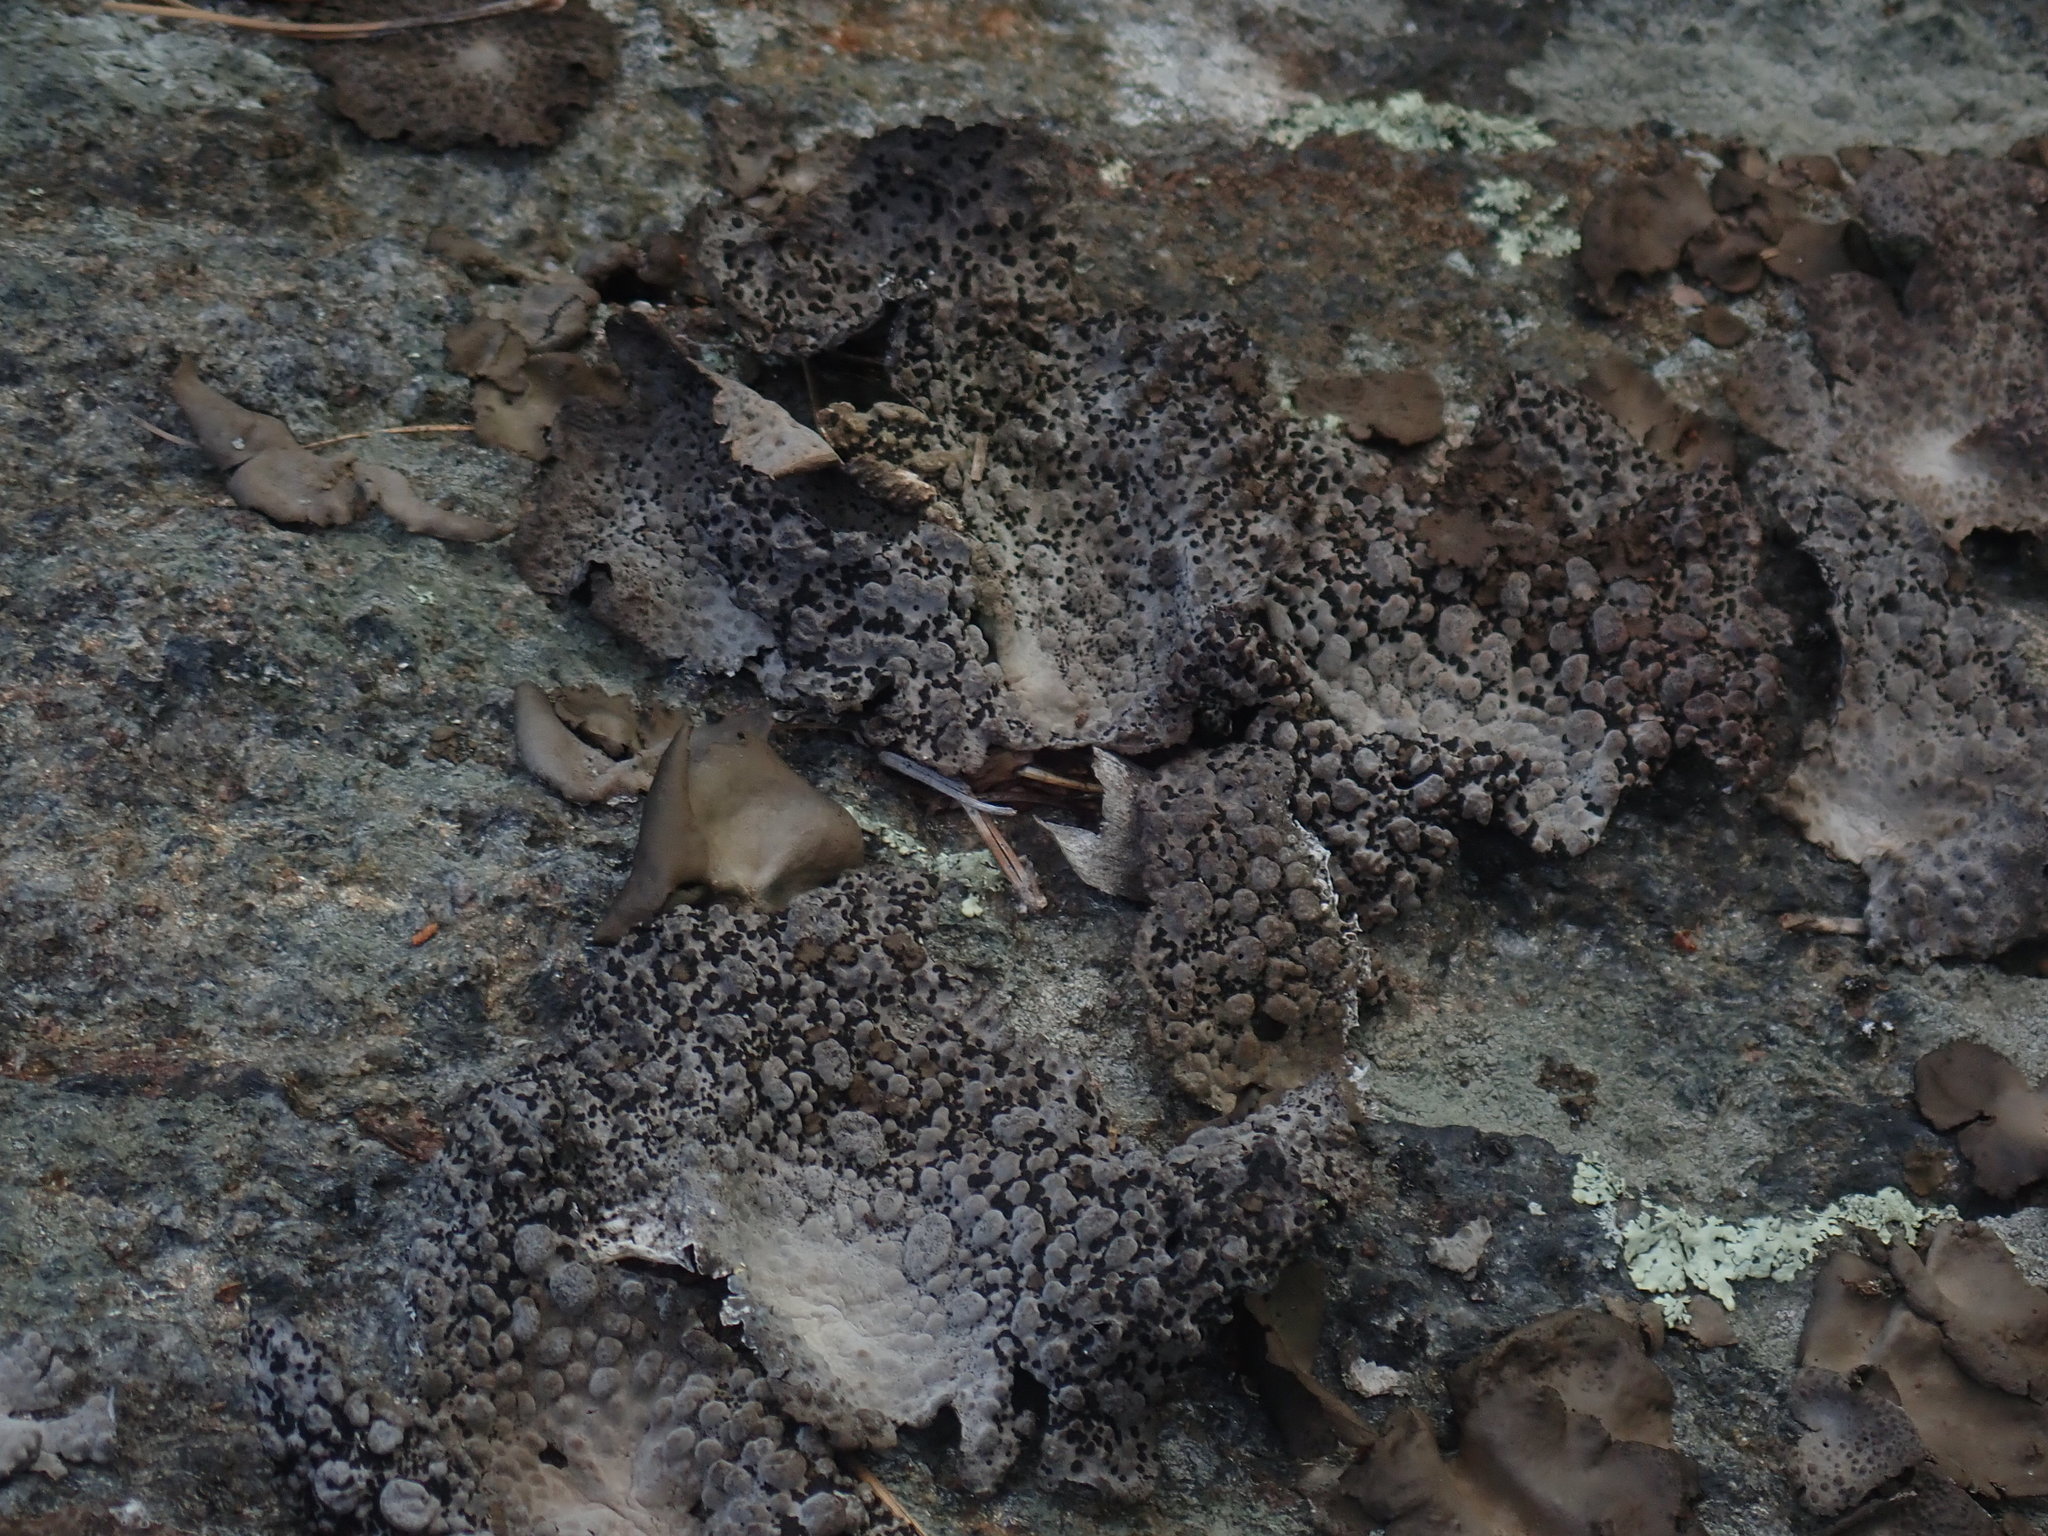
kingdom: Fungi
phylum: Ascomycota
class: Lecanoromycetes
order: Umbilicariales
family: Umbilicariaceae
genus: Lasallia
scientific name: Lasallia papulosa
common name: Common toadskin lichen
